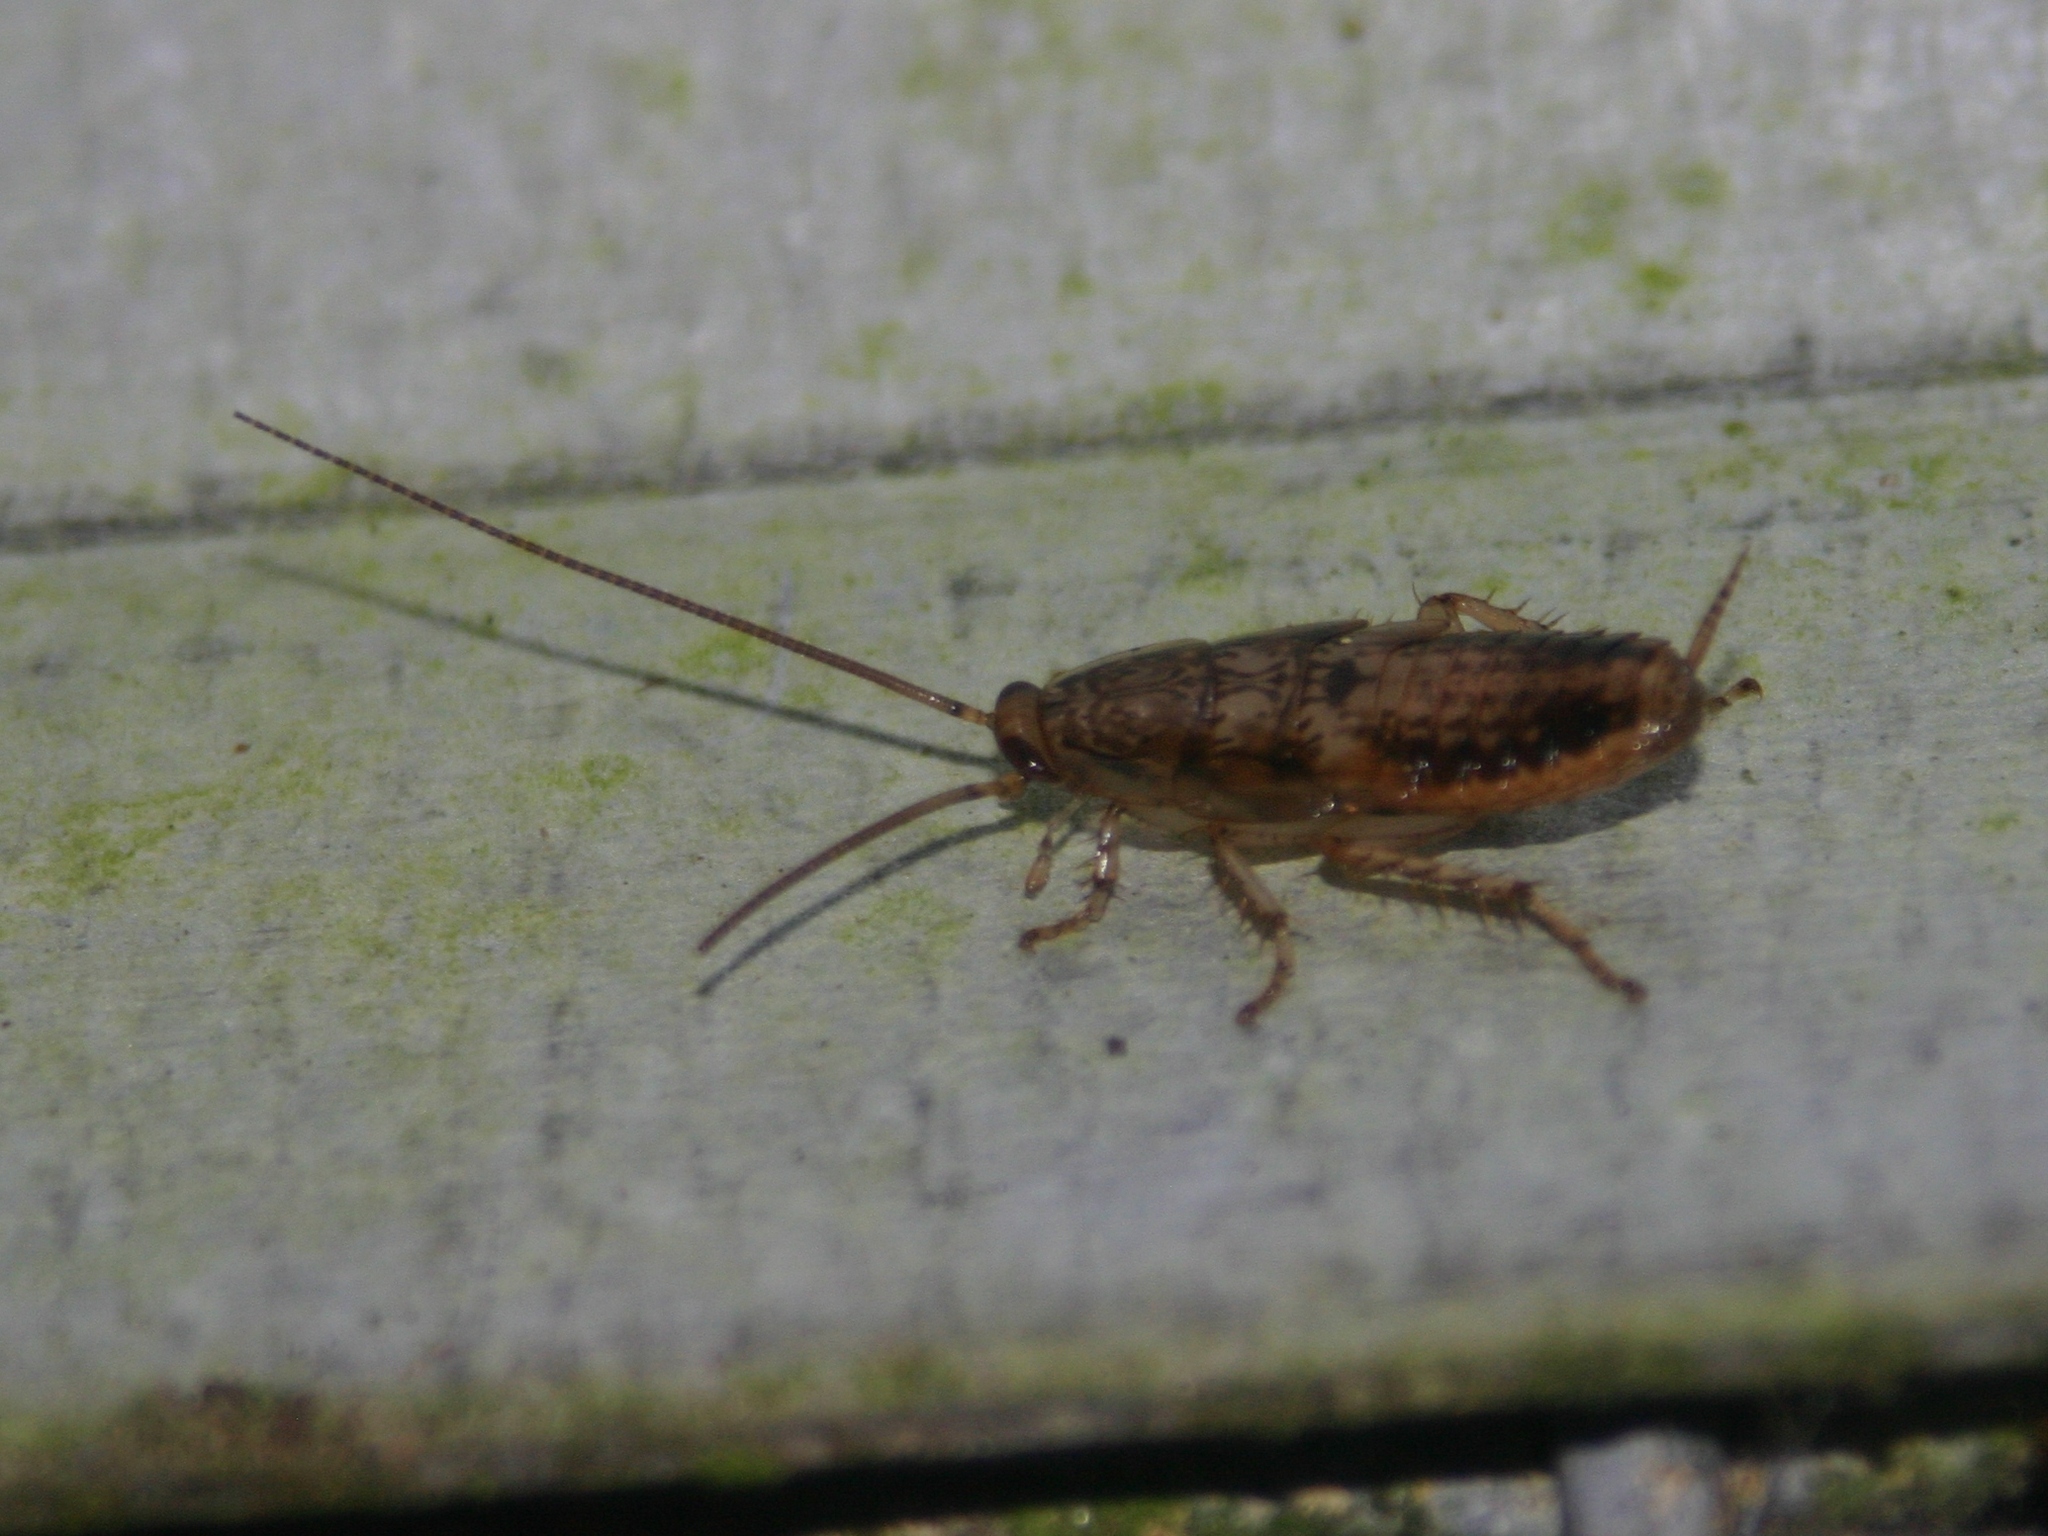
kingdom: Animalia
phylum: Arthropoda
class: Insecta
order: Blattodea
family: Ectobiidae
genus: Parellipsidion
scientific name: Parellipsidion latipenne
